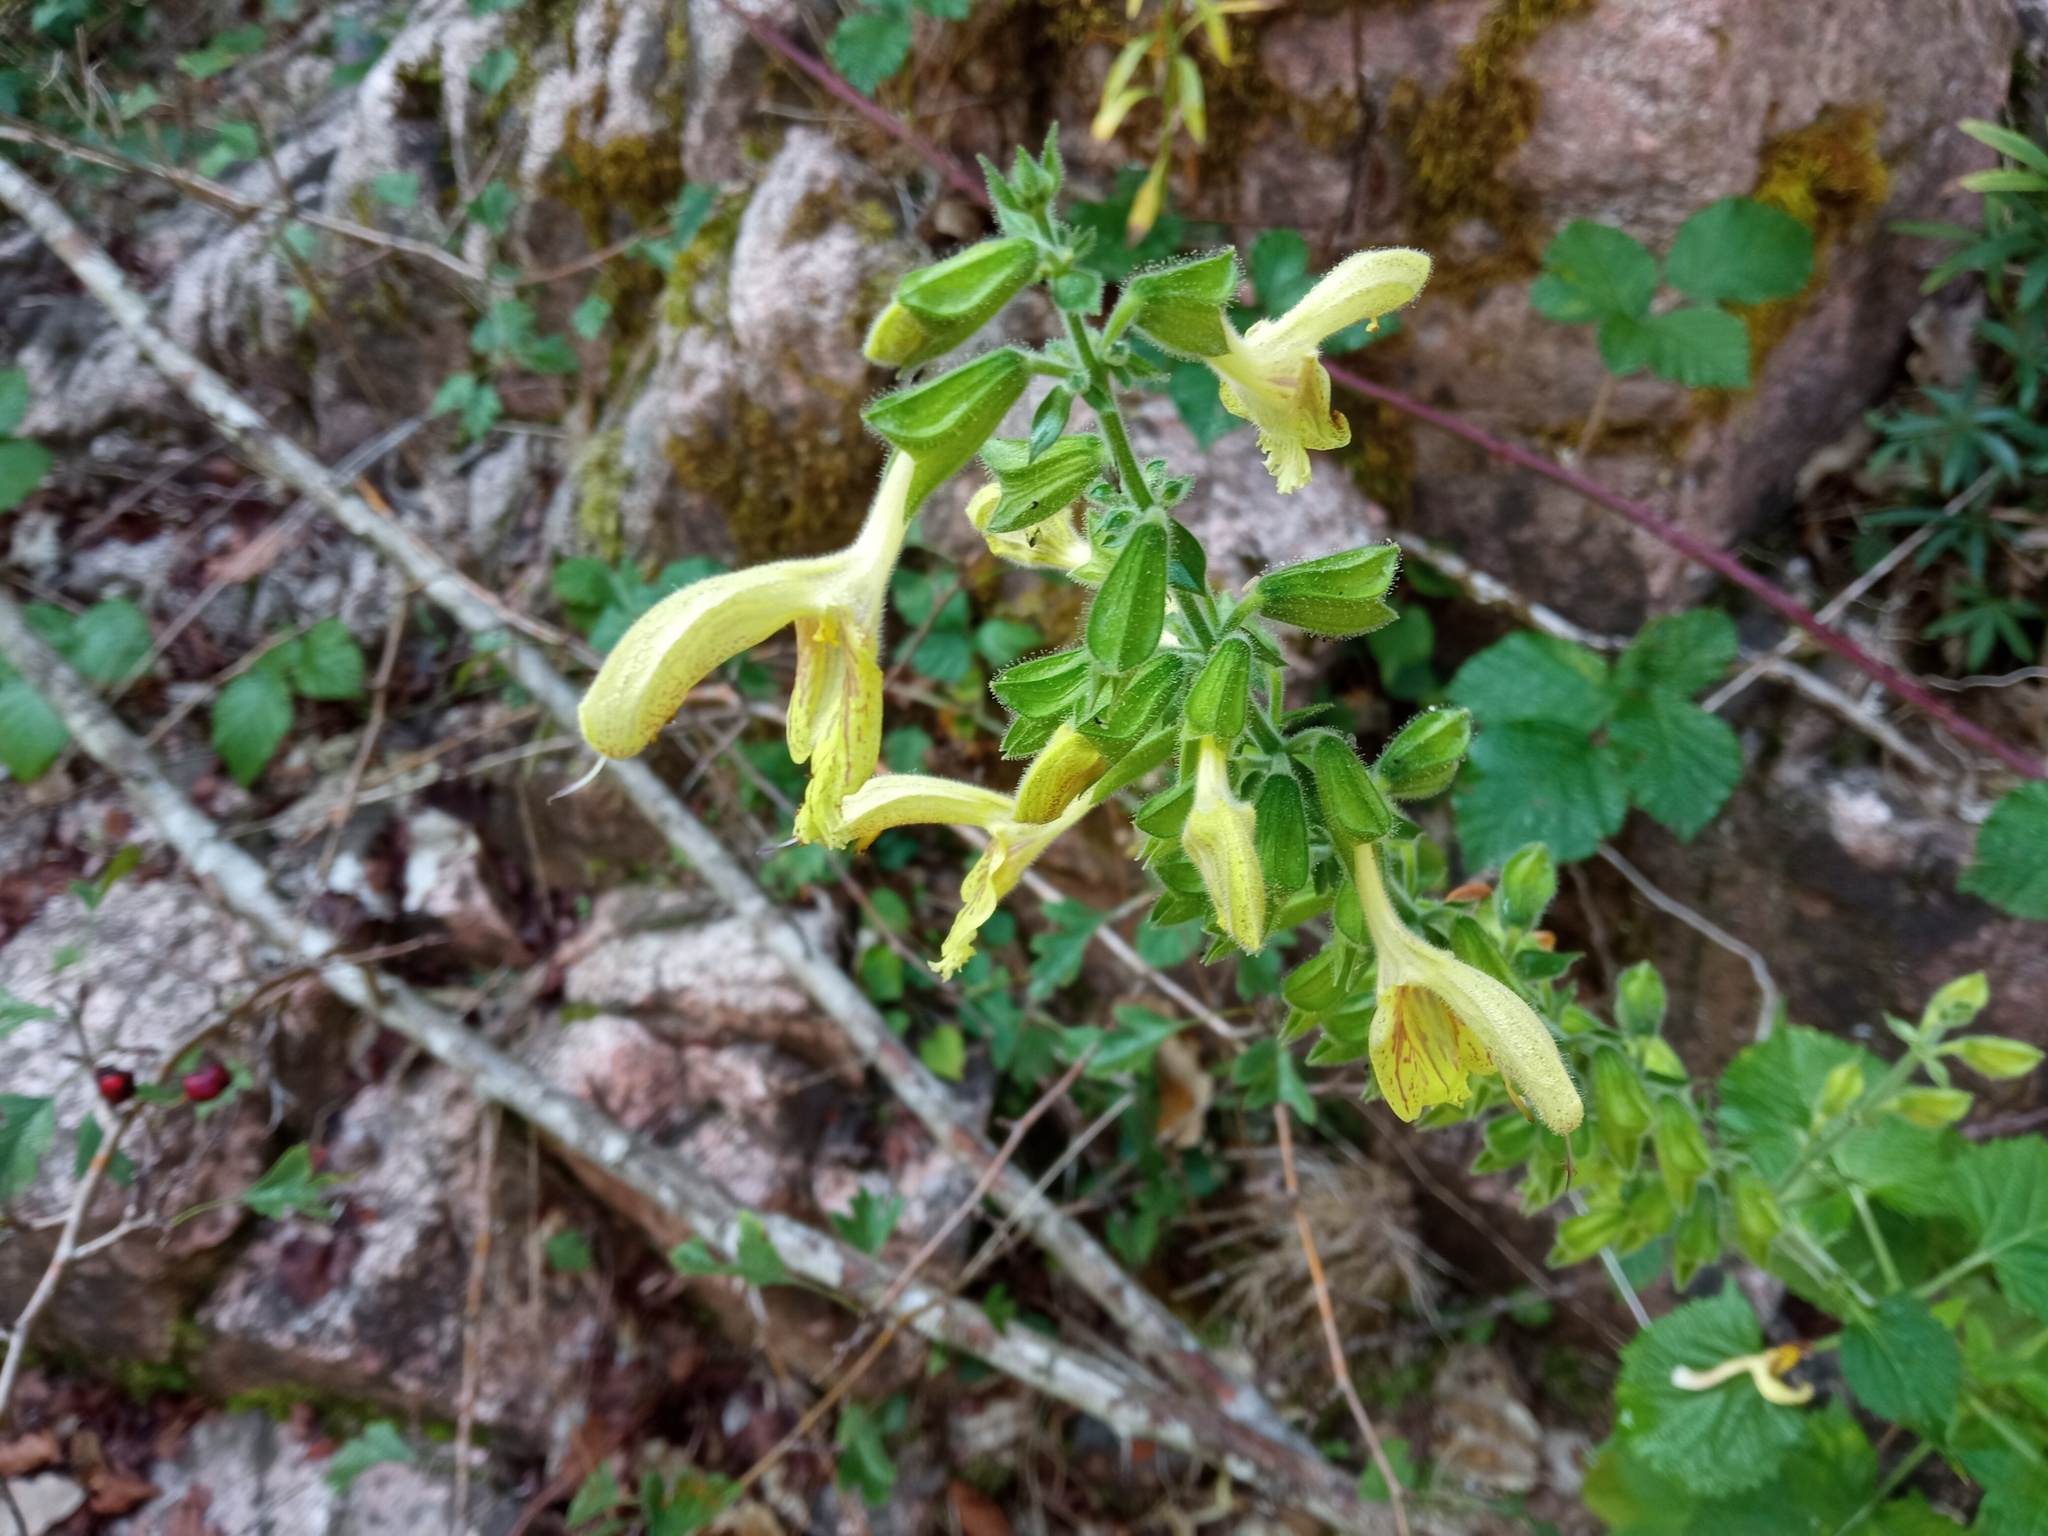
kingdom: Plantae
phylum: Tracheophyta
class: Magnoliopsida
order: Lamiales
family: Lamiaceae
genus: Salvia
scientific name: Salvia glutinosa
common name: Sticky clary
